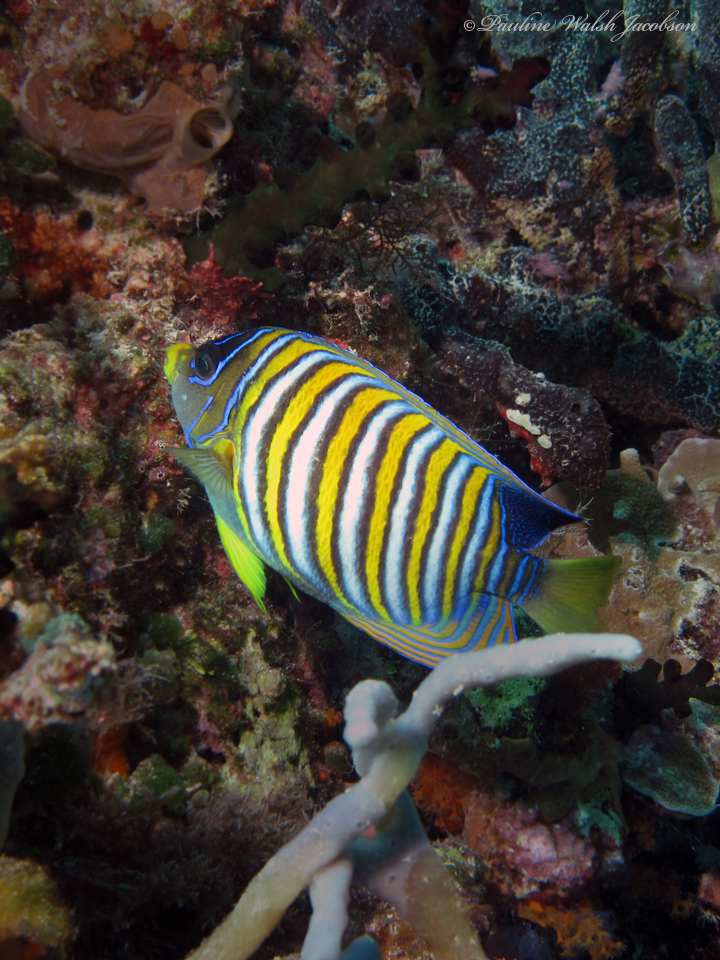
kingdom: Animalia
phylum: Chordata
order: Perciformes
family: Pomacanthidae
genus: Pygoplites
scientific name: Pygoplites diacanthus
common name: Regal angelfish
